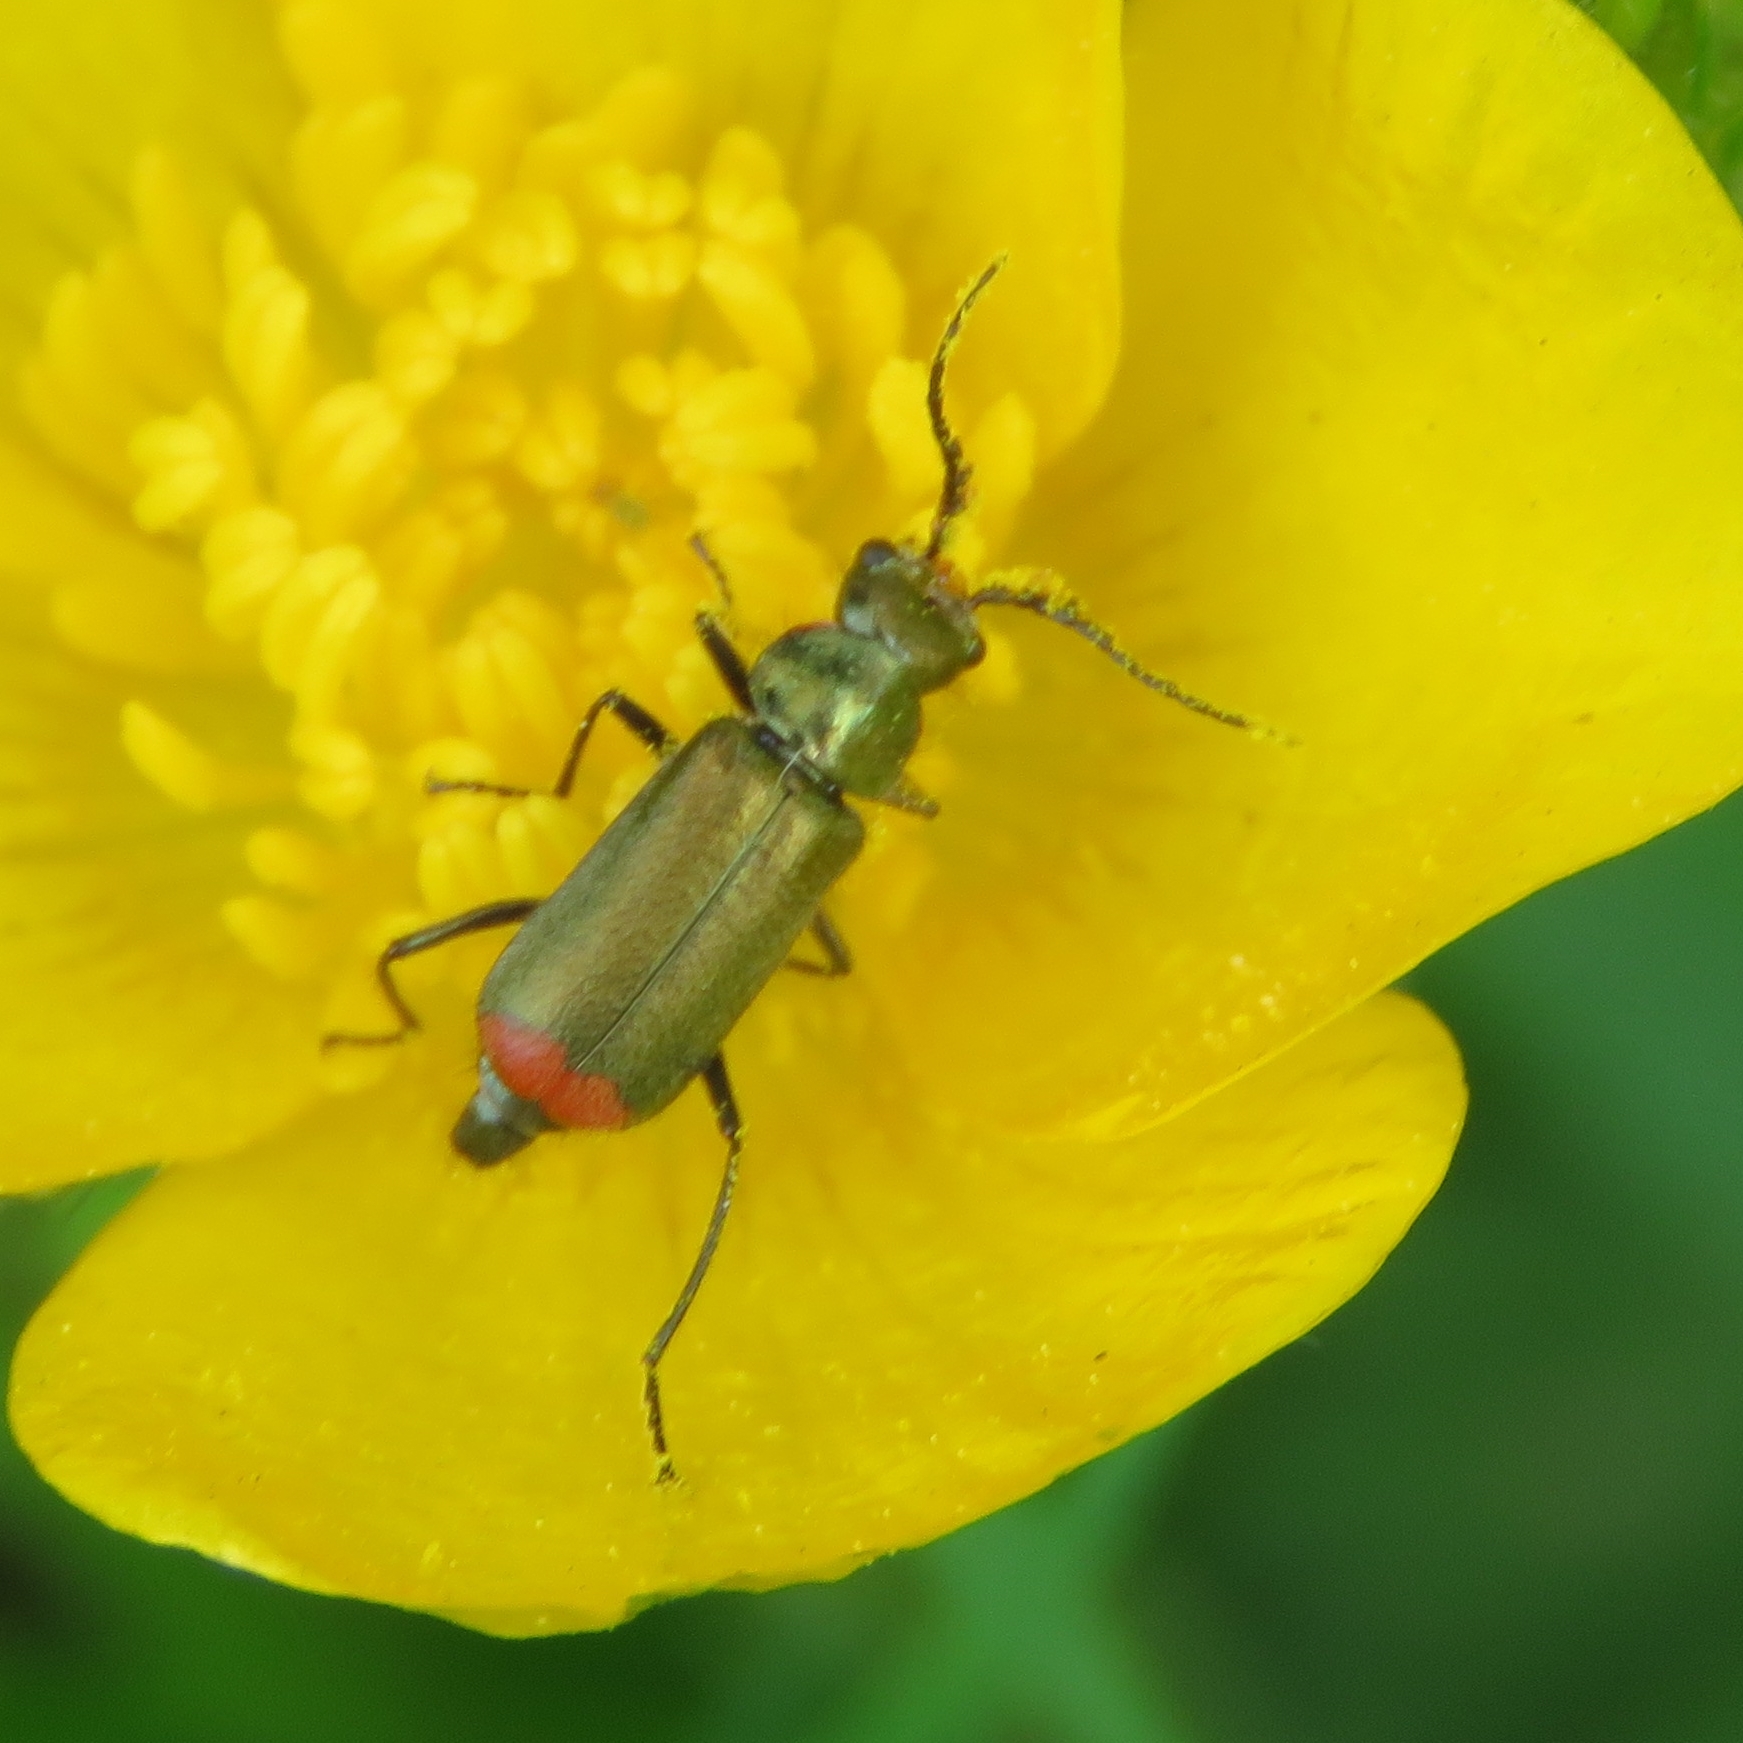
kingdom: Animalia
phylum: Arthropoda
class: Insecta
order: Coleoptera
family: Melyridae
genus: Malachius
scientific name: Malachius bipustulatus
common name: Malachite beetle
